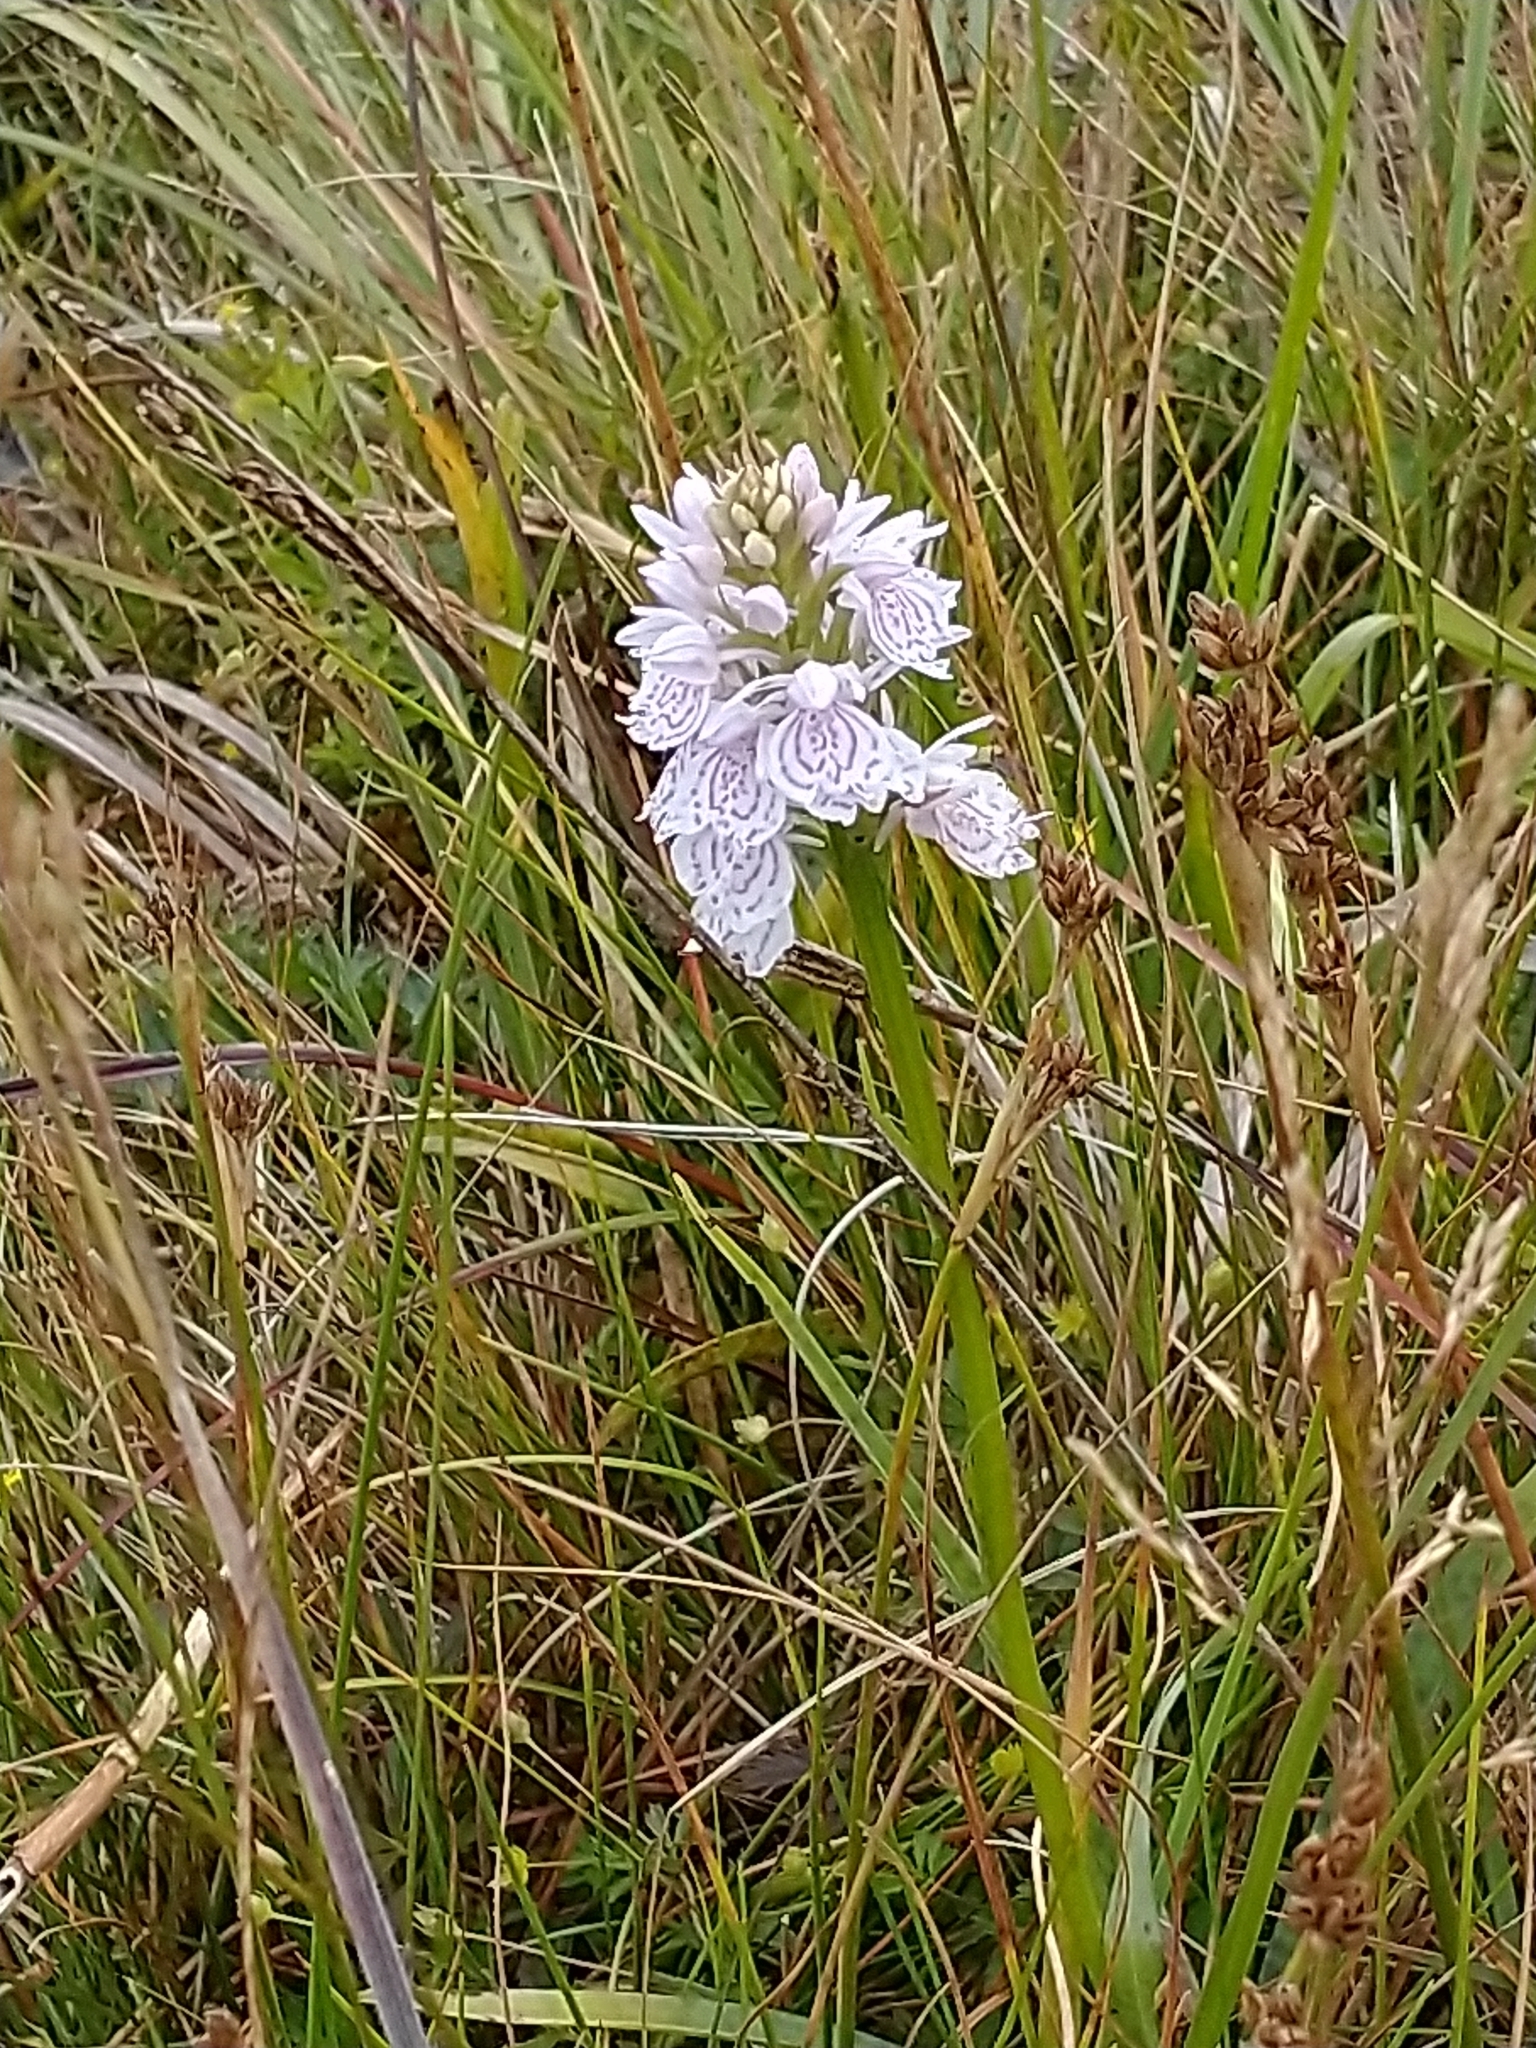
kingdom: Plantae
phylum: Tracheophyta
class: Liliopsida
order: Asparagales
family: Orchidaceae
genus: Dactylorhiza
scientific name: Dactylorhiza maculata
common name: Heath spotted-orchid
